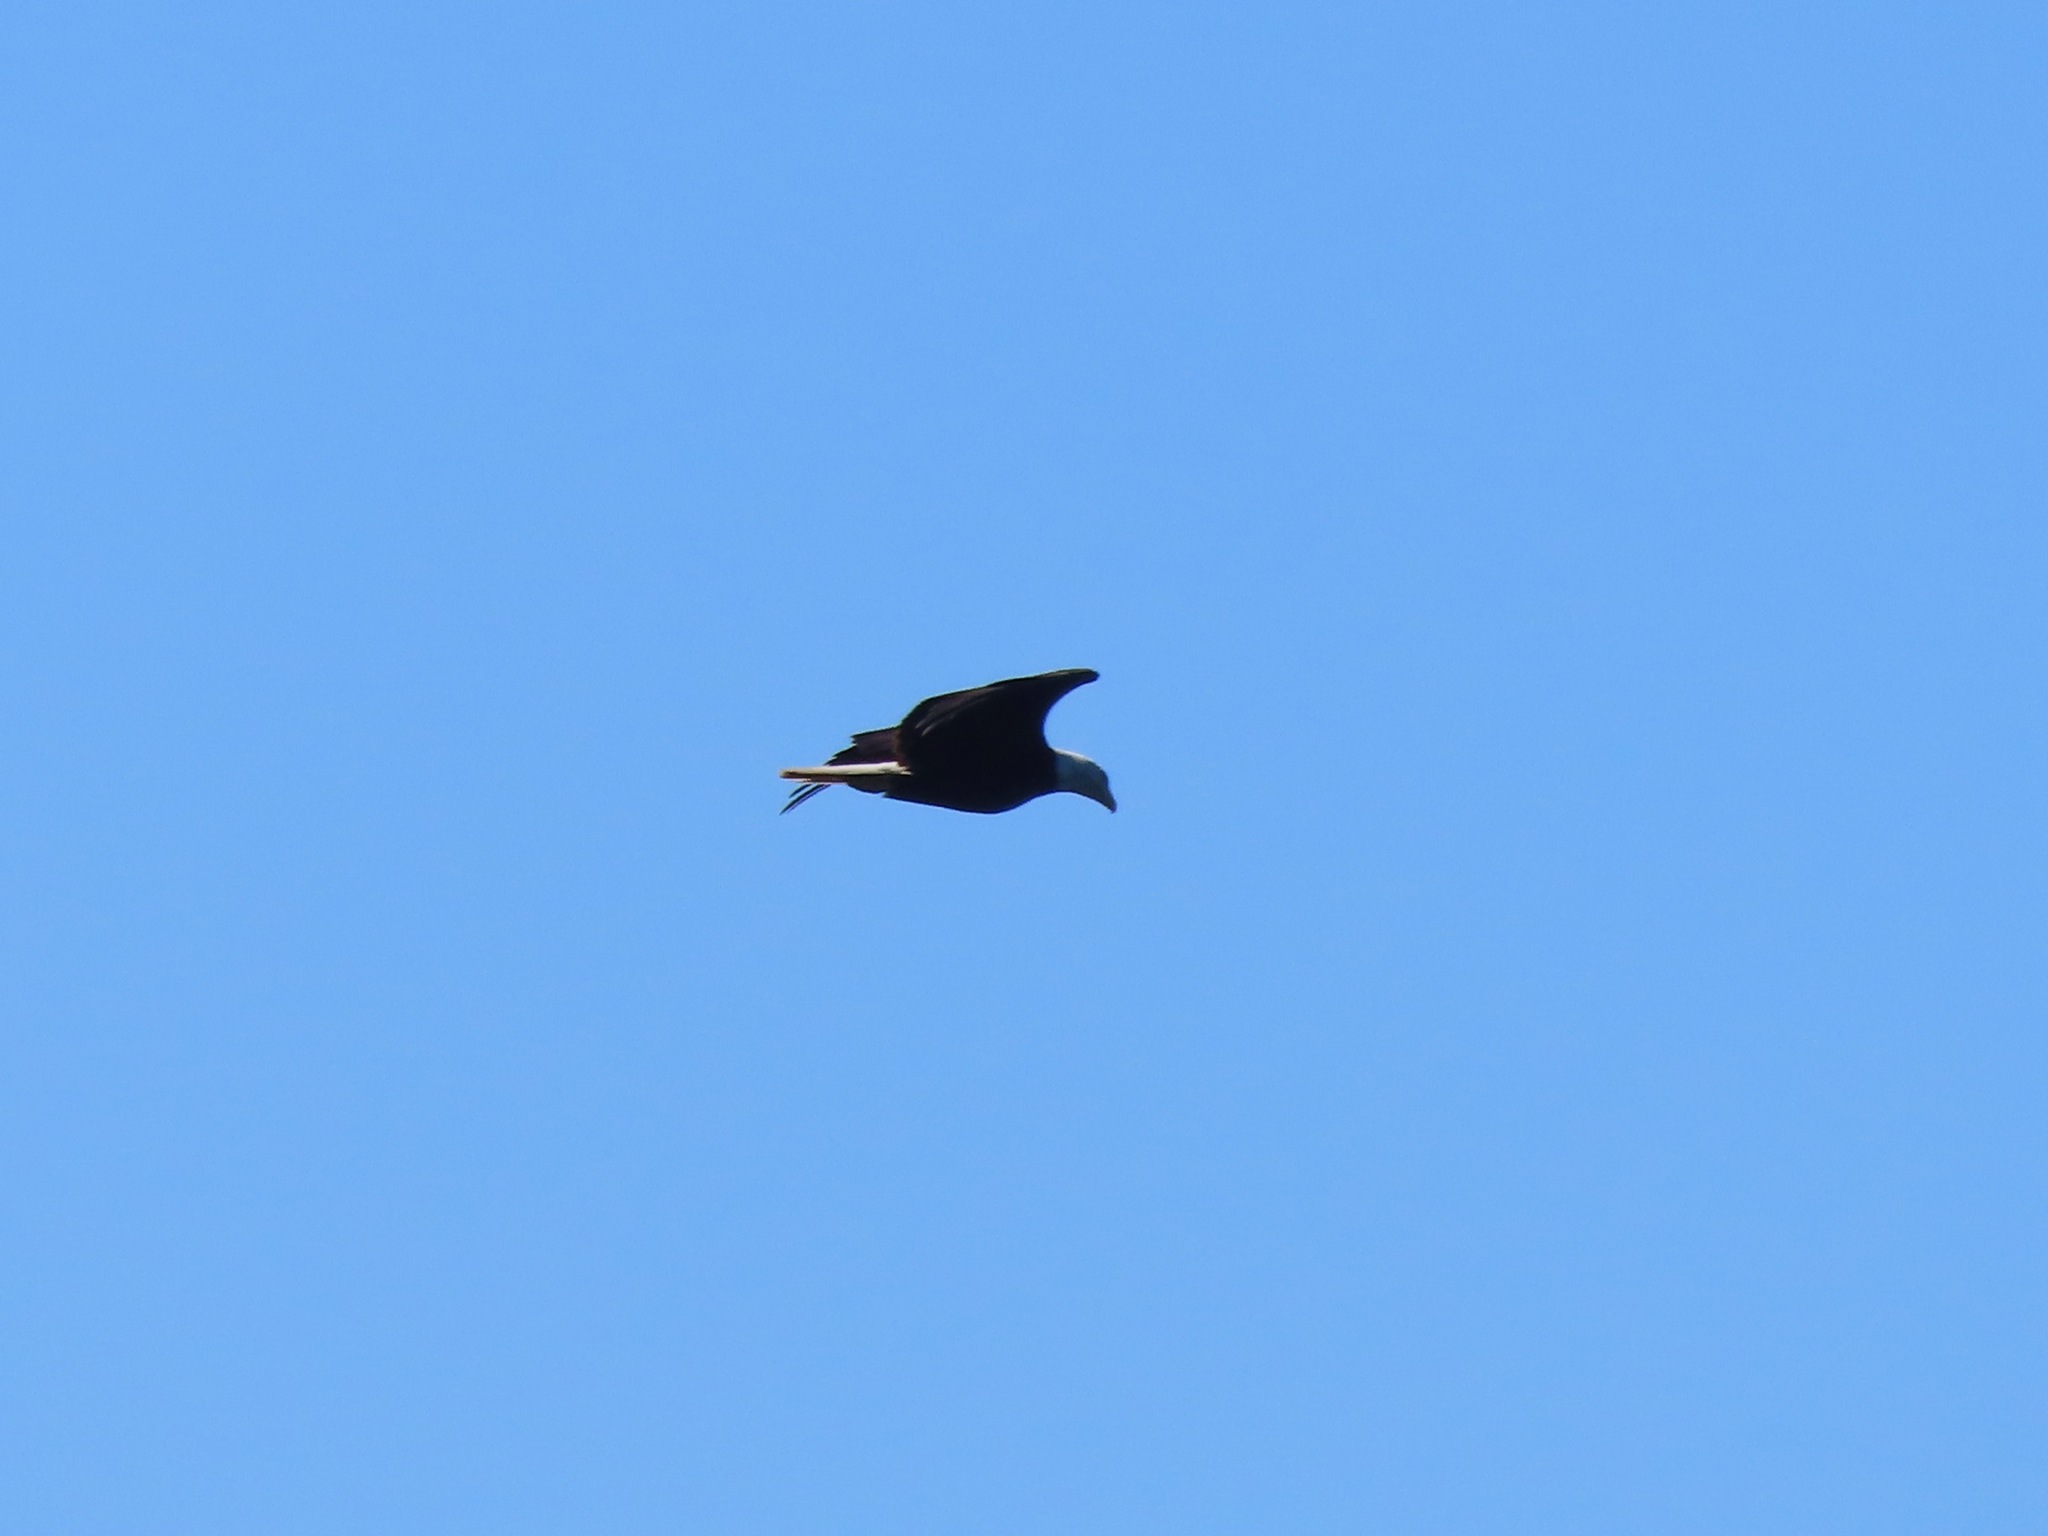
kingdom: Animalia
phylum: Chordata
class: Aves
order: Accipitriformes
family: Accipitridae
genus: Haliaeetus
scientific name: Haliaeetus leucocephalus
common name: Bald eagle
